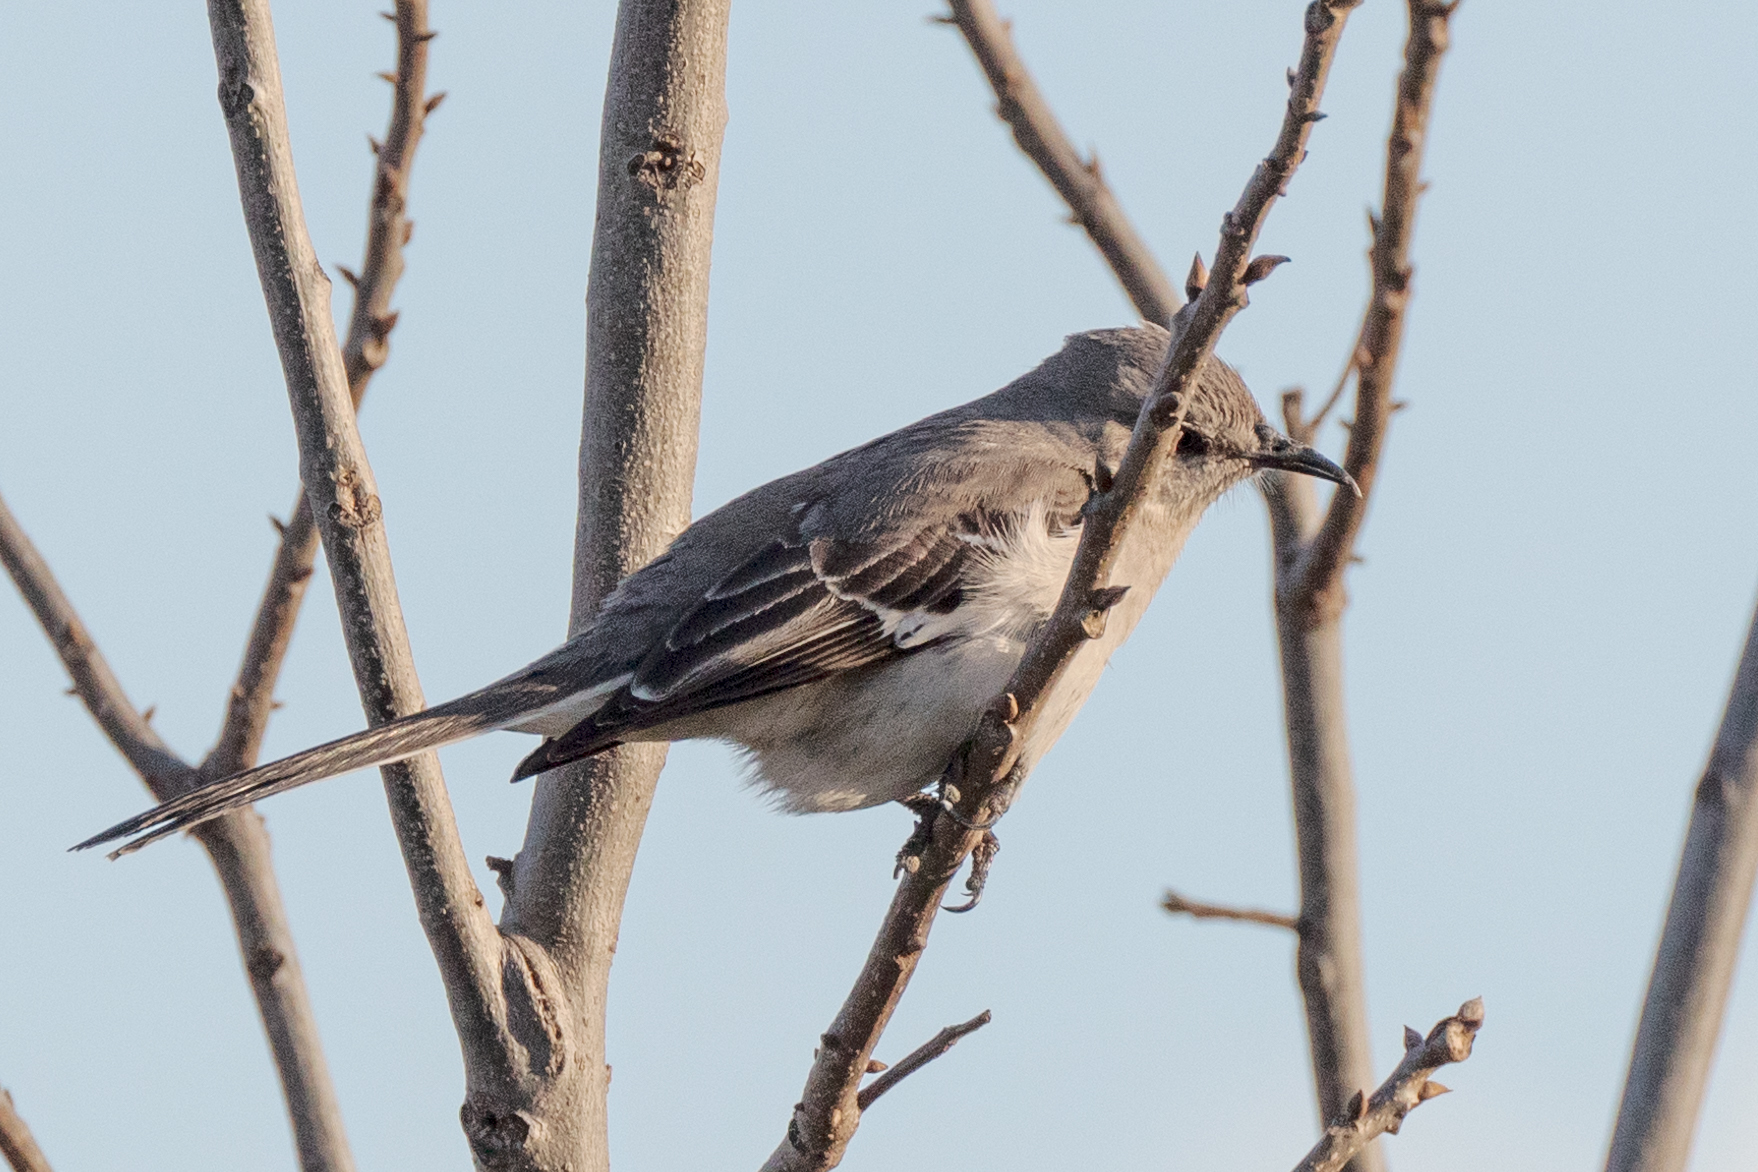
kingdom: Animalia
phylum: Chordata
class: Aves
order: Passeriformes
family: Mimidae
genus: Mimus
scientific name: Mimus polyglottos
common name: Northern mockingbird
